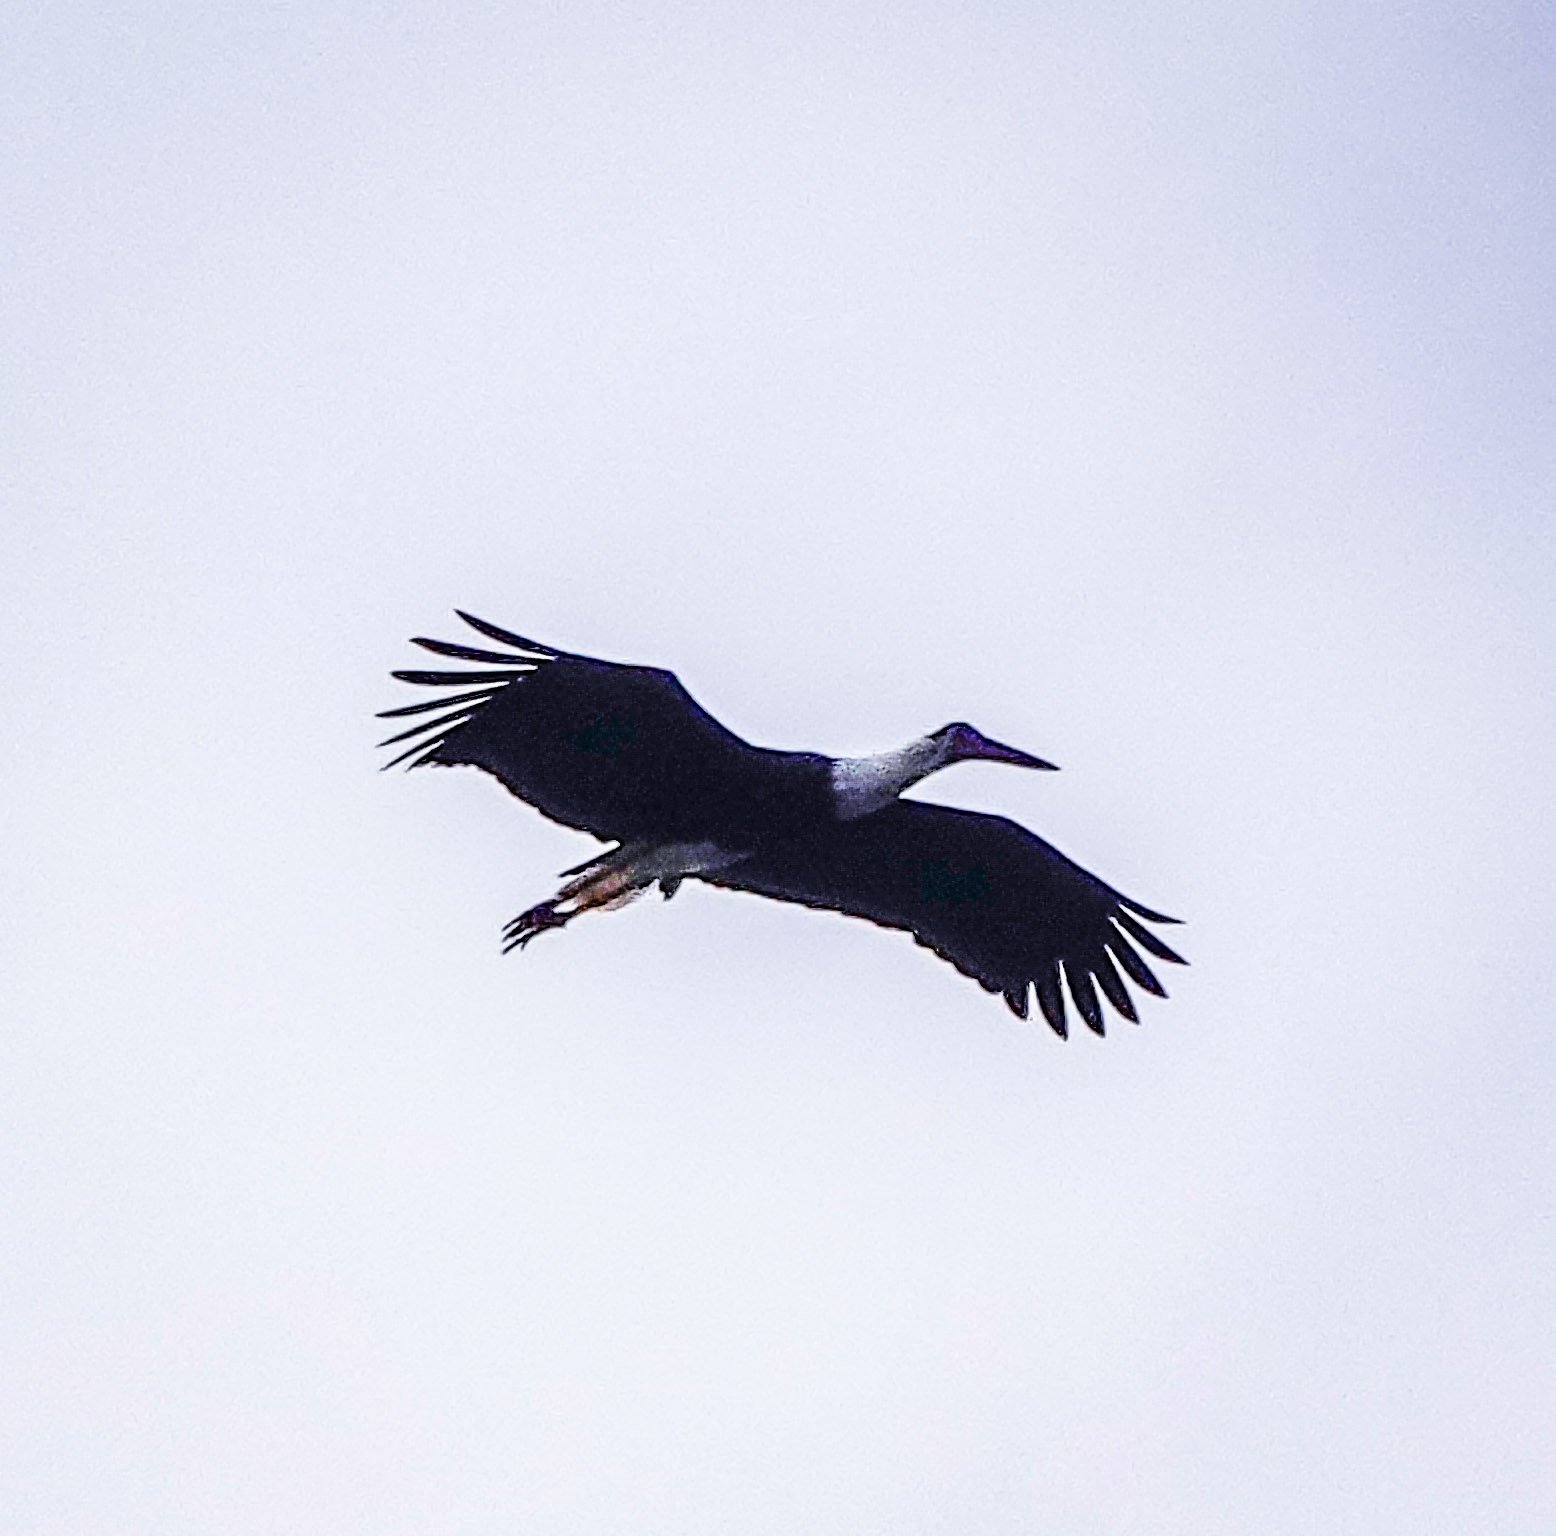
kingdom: Animalia
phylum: Chordata
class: Aves
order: Ciconiiformes
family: Ciconiidae
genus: Ciconia
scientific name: Ciconia episcopus
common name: Woolly-necked stork
